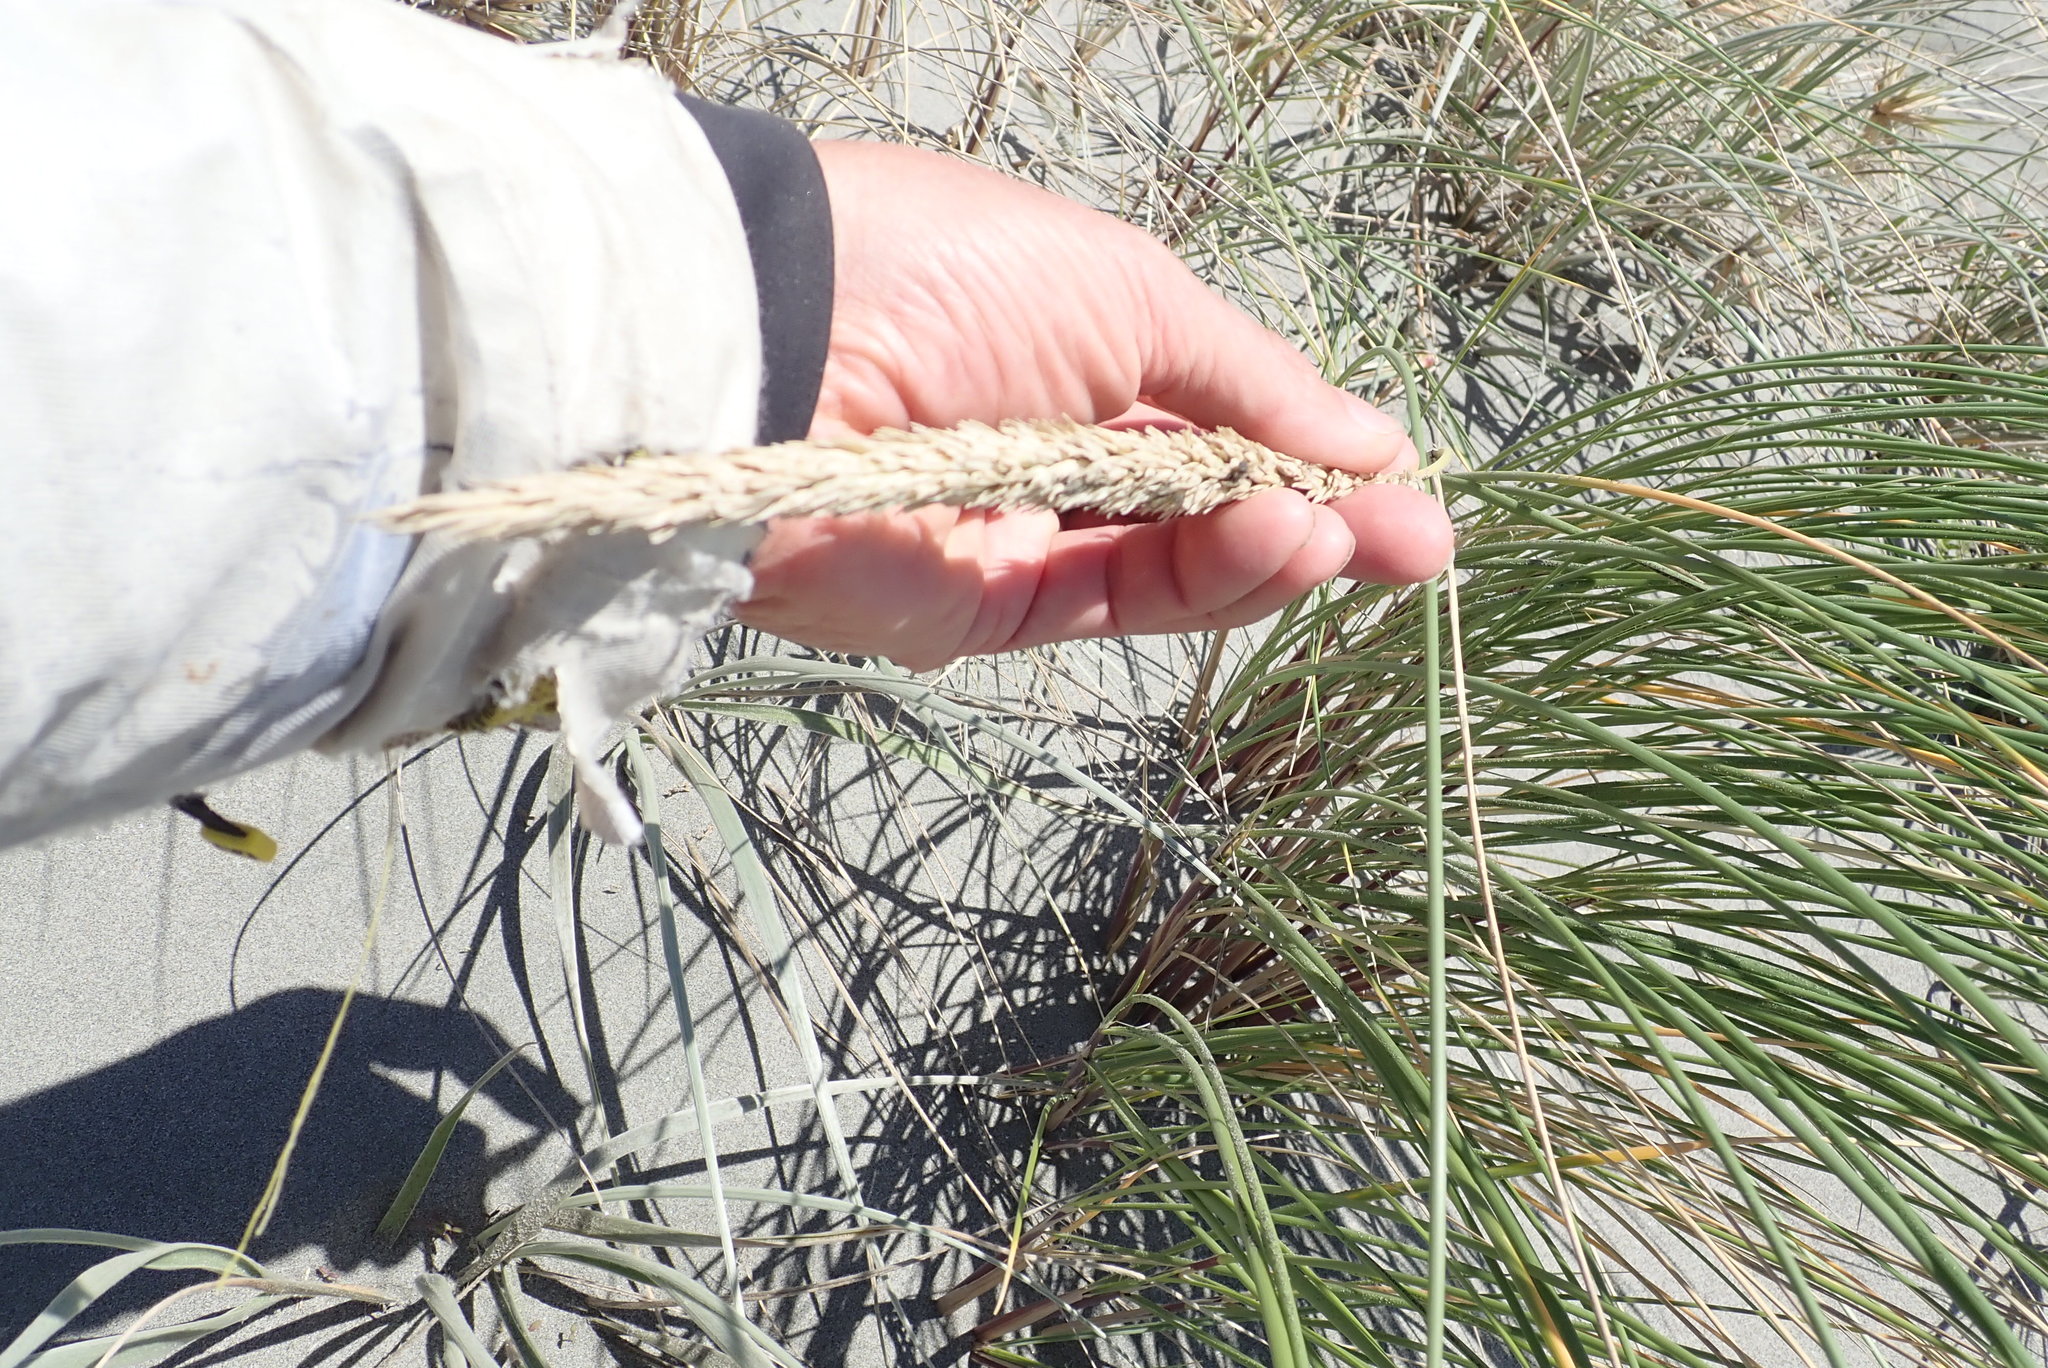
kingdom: Plantae
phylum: Tracheophyta
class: Liliopsida
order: Poales
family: Poaceae
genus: Calamagrostis
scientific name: Calamagrostis arenaria
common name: European beachgrass
